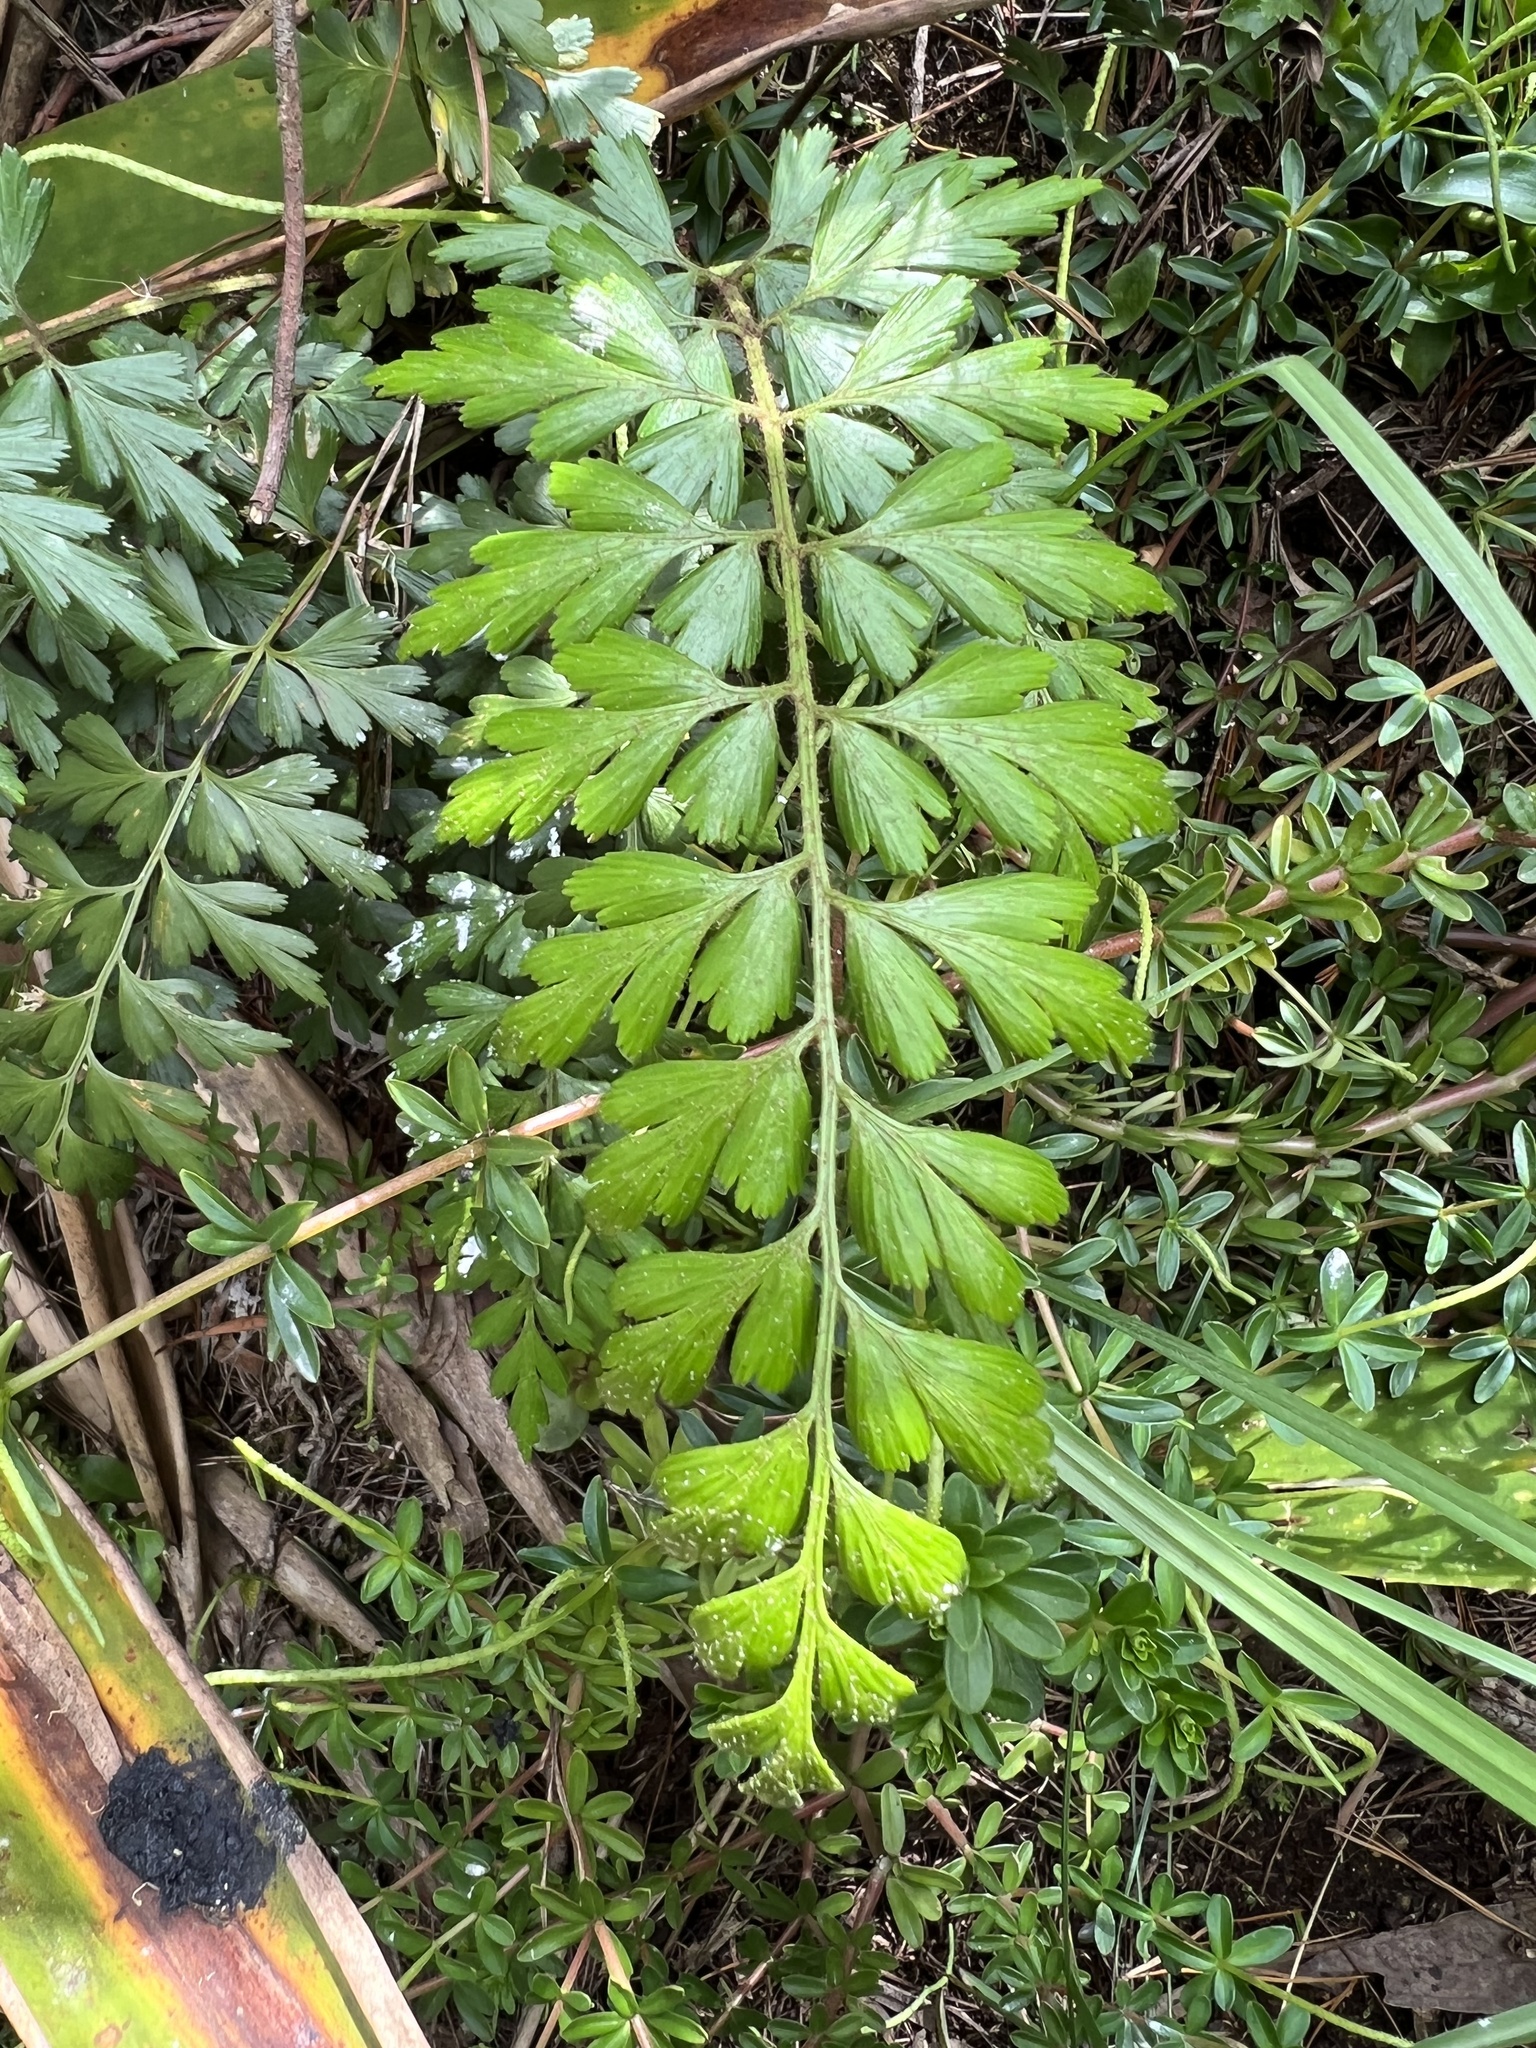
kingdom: Plantae
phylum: Tracheophyta
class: Polypodiopsida
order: Polypodiales
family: Aspleniaceae
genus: Asplenium
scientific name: Asplenium praemorsum
